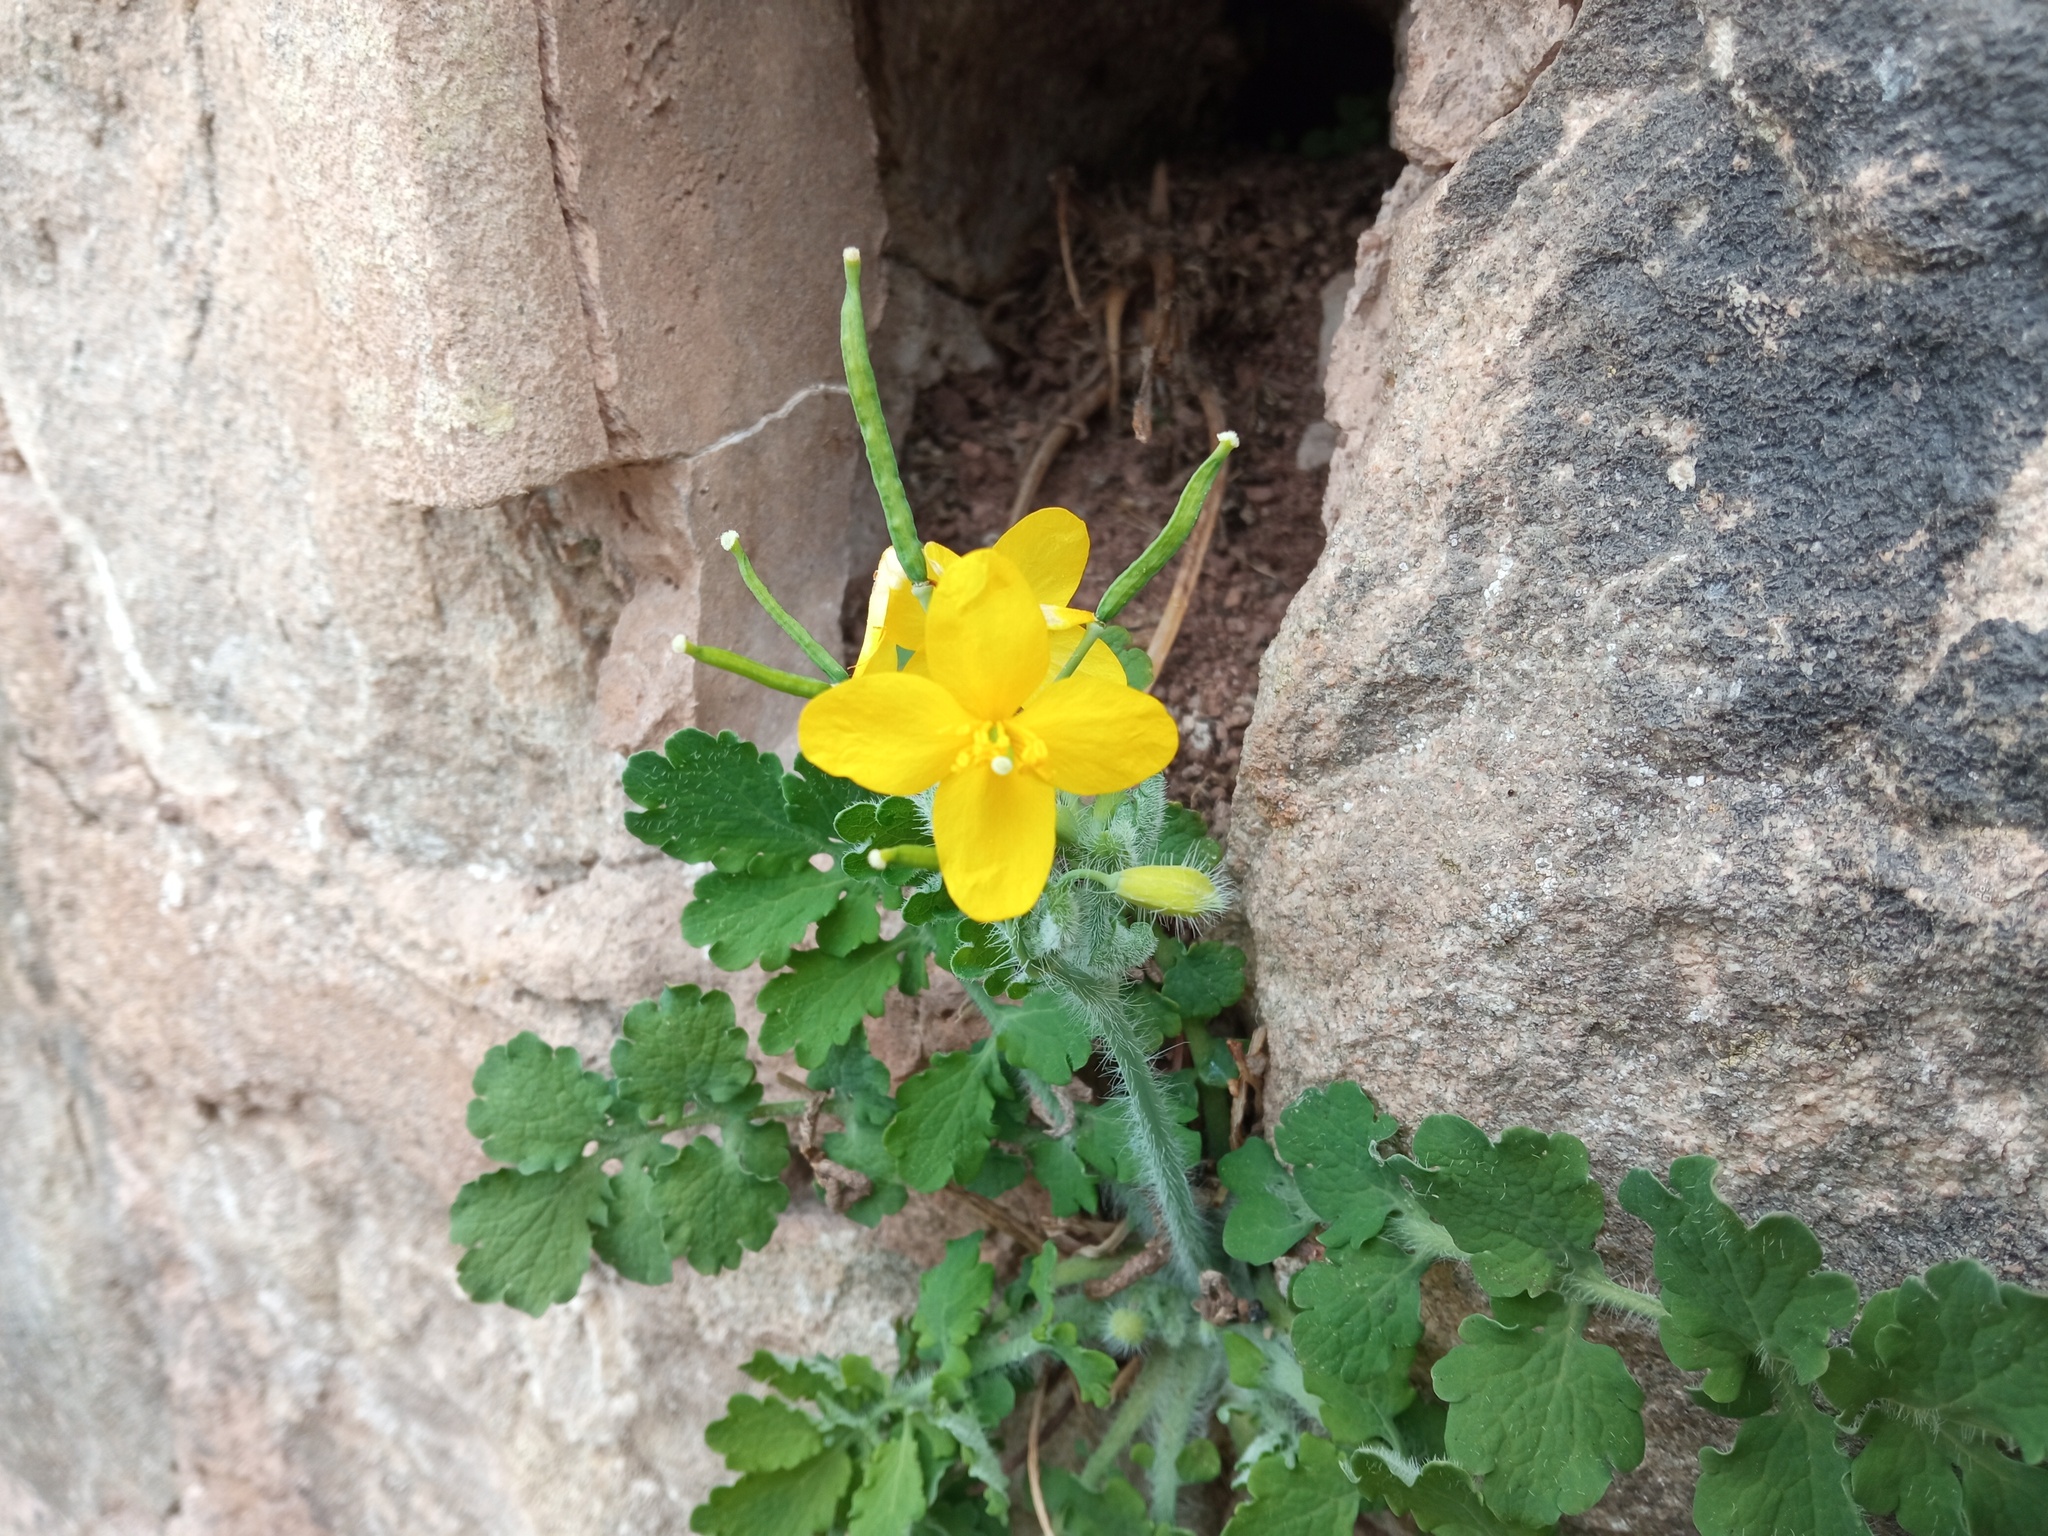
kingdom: Plantae
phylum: Tracheophyta
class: Magnoliopsida
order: Ranunculales
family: Papaveraceae
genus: Chelidonium
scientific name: Chelidonium majus
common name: Greater celandine
